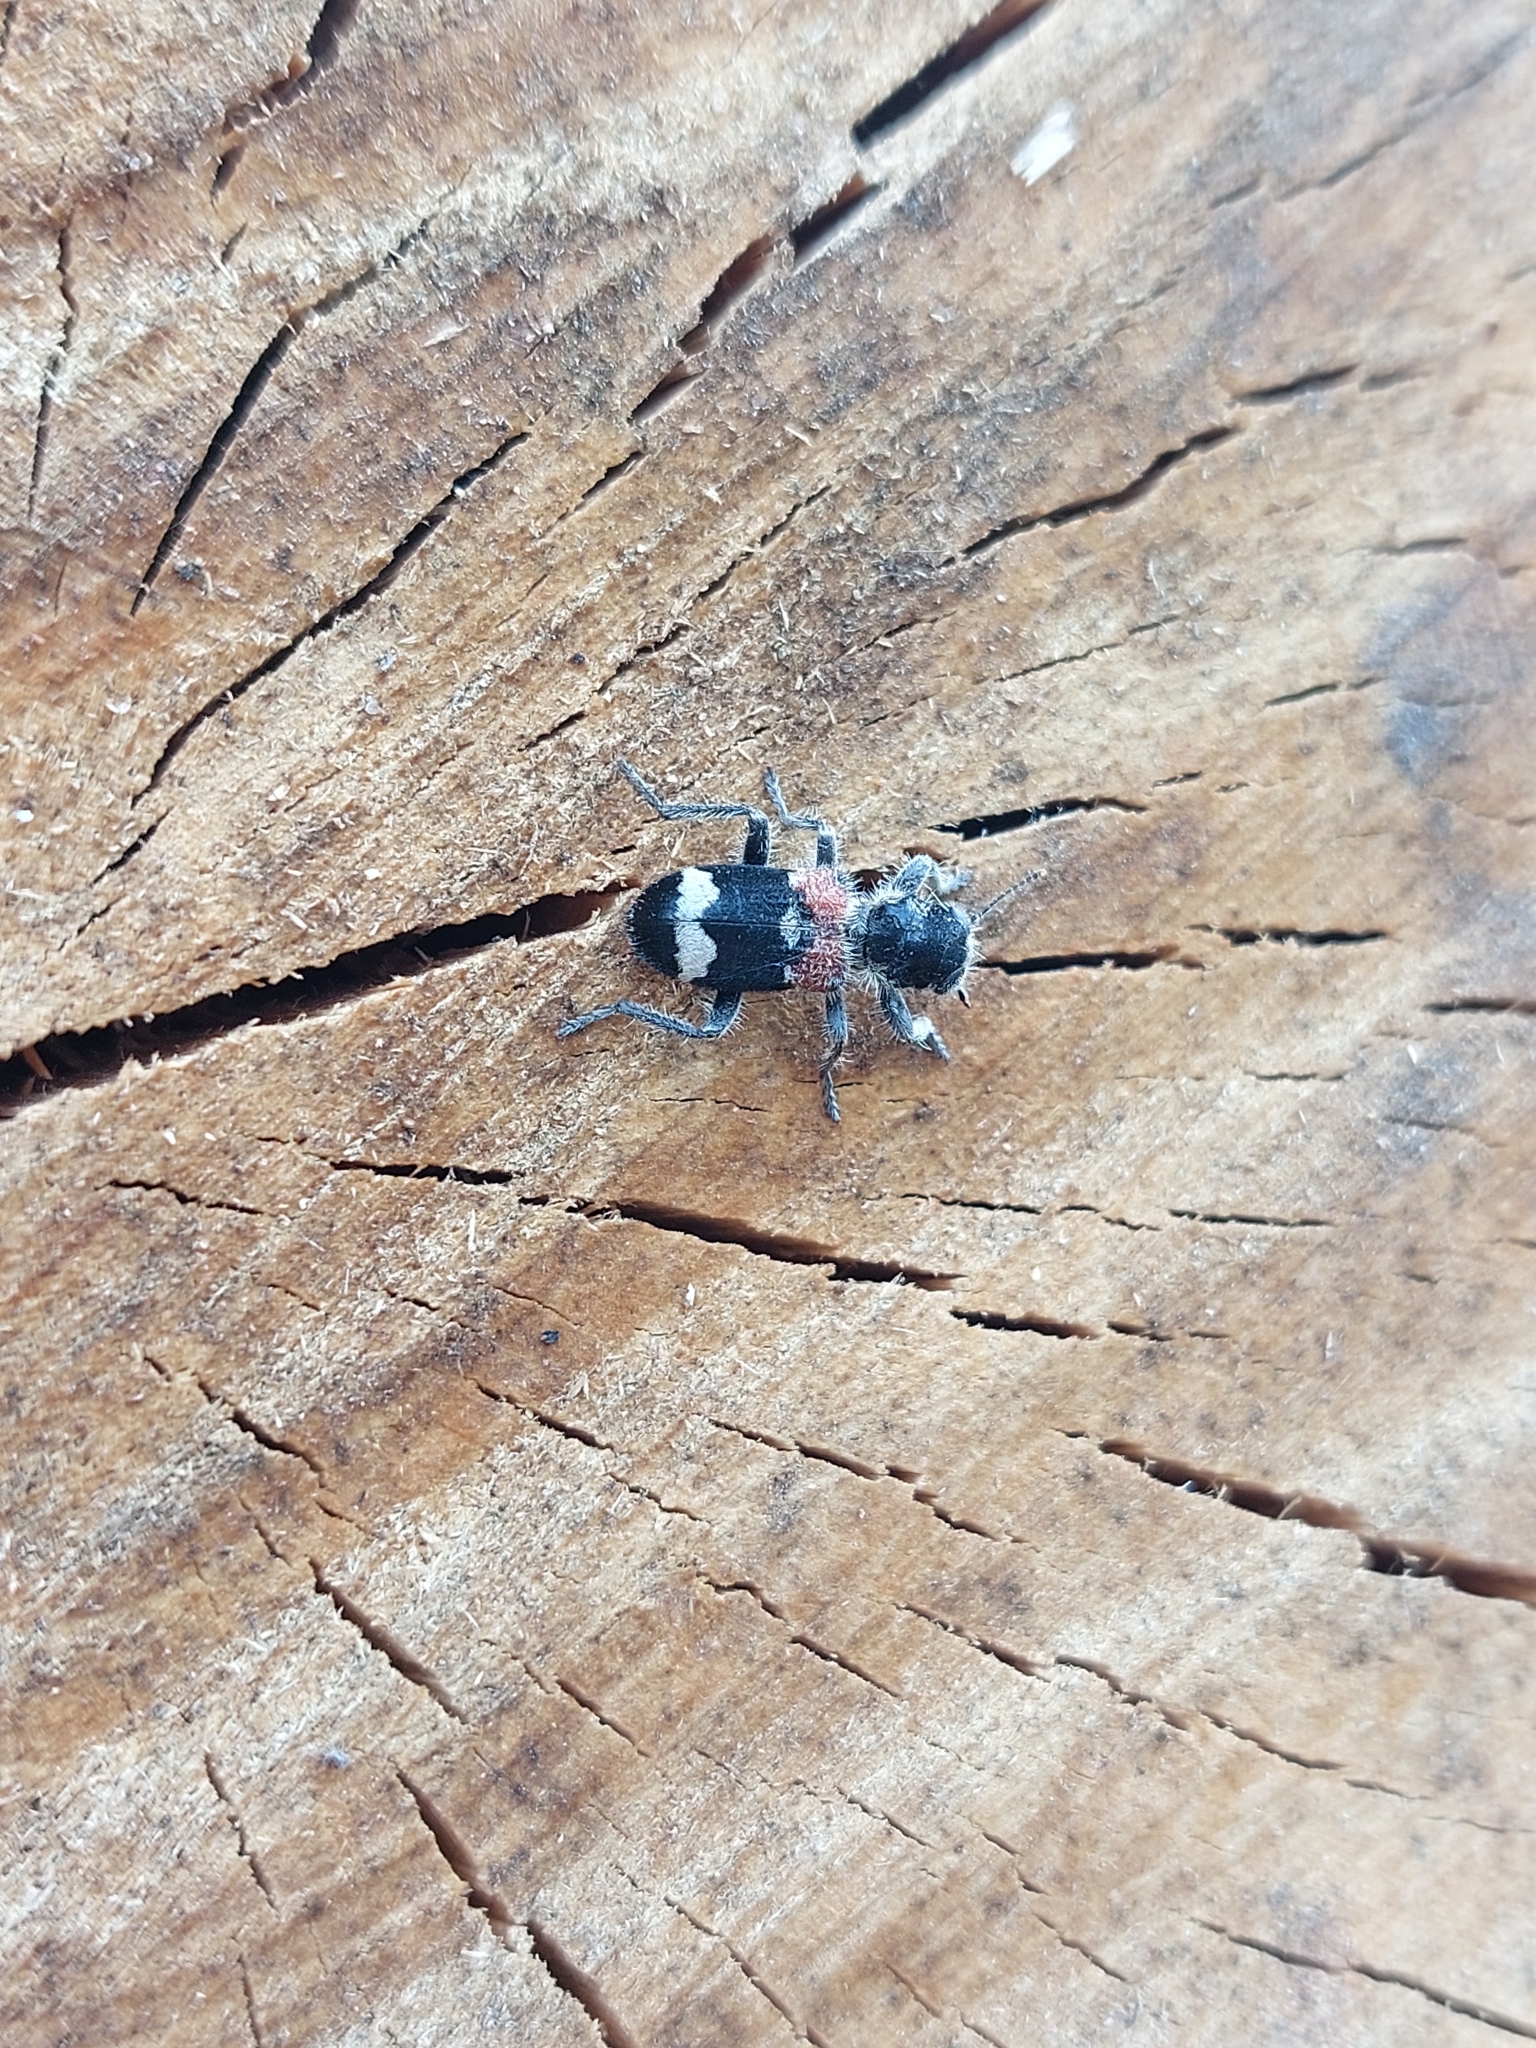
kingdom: Animalia
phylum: Arthropoda
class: Insecta
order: Coleoptera
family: Cleridae
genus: Clerus
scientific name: Clerus mutillarius
